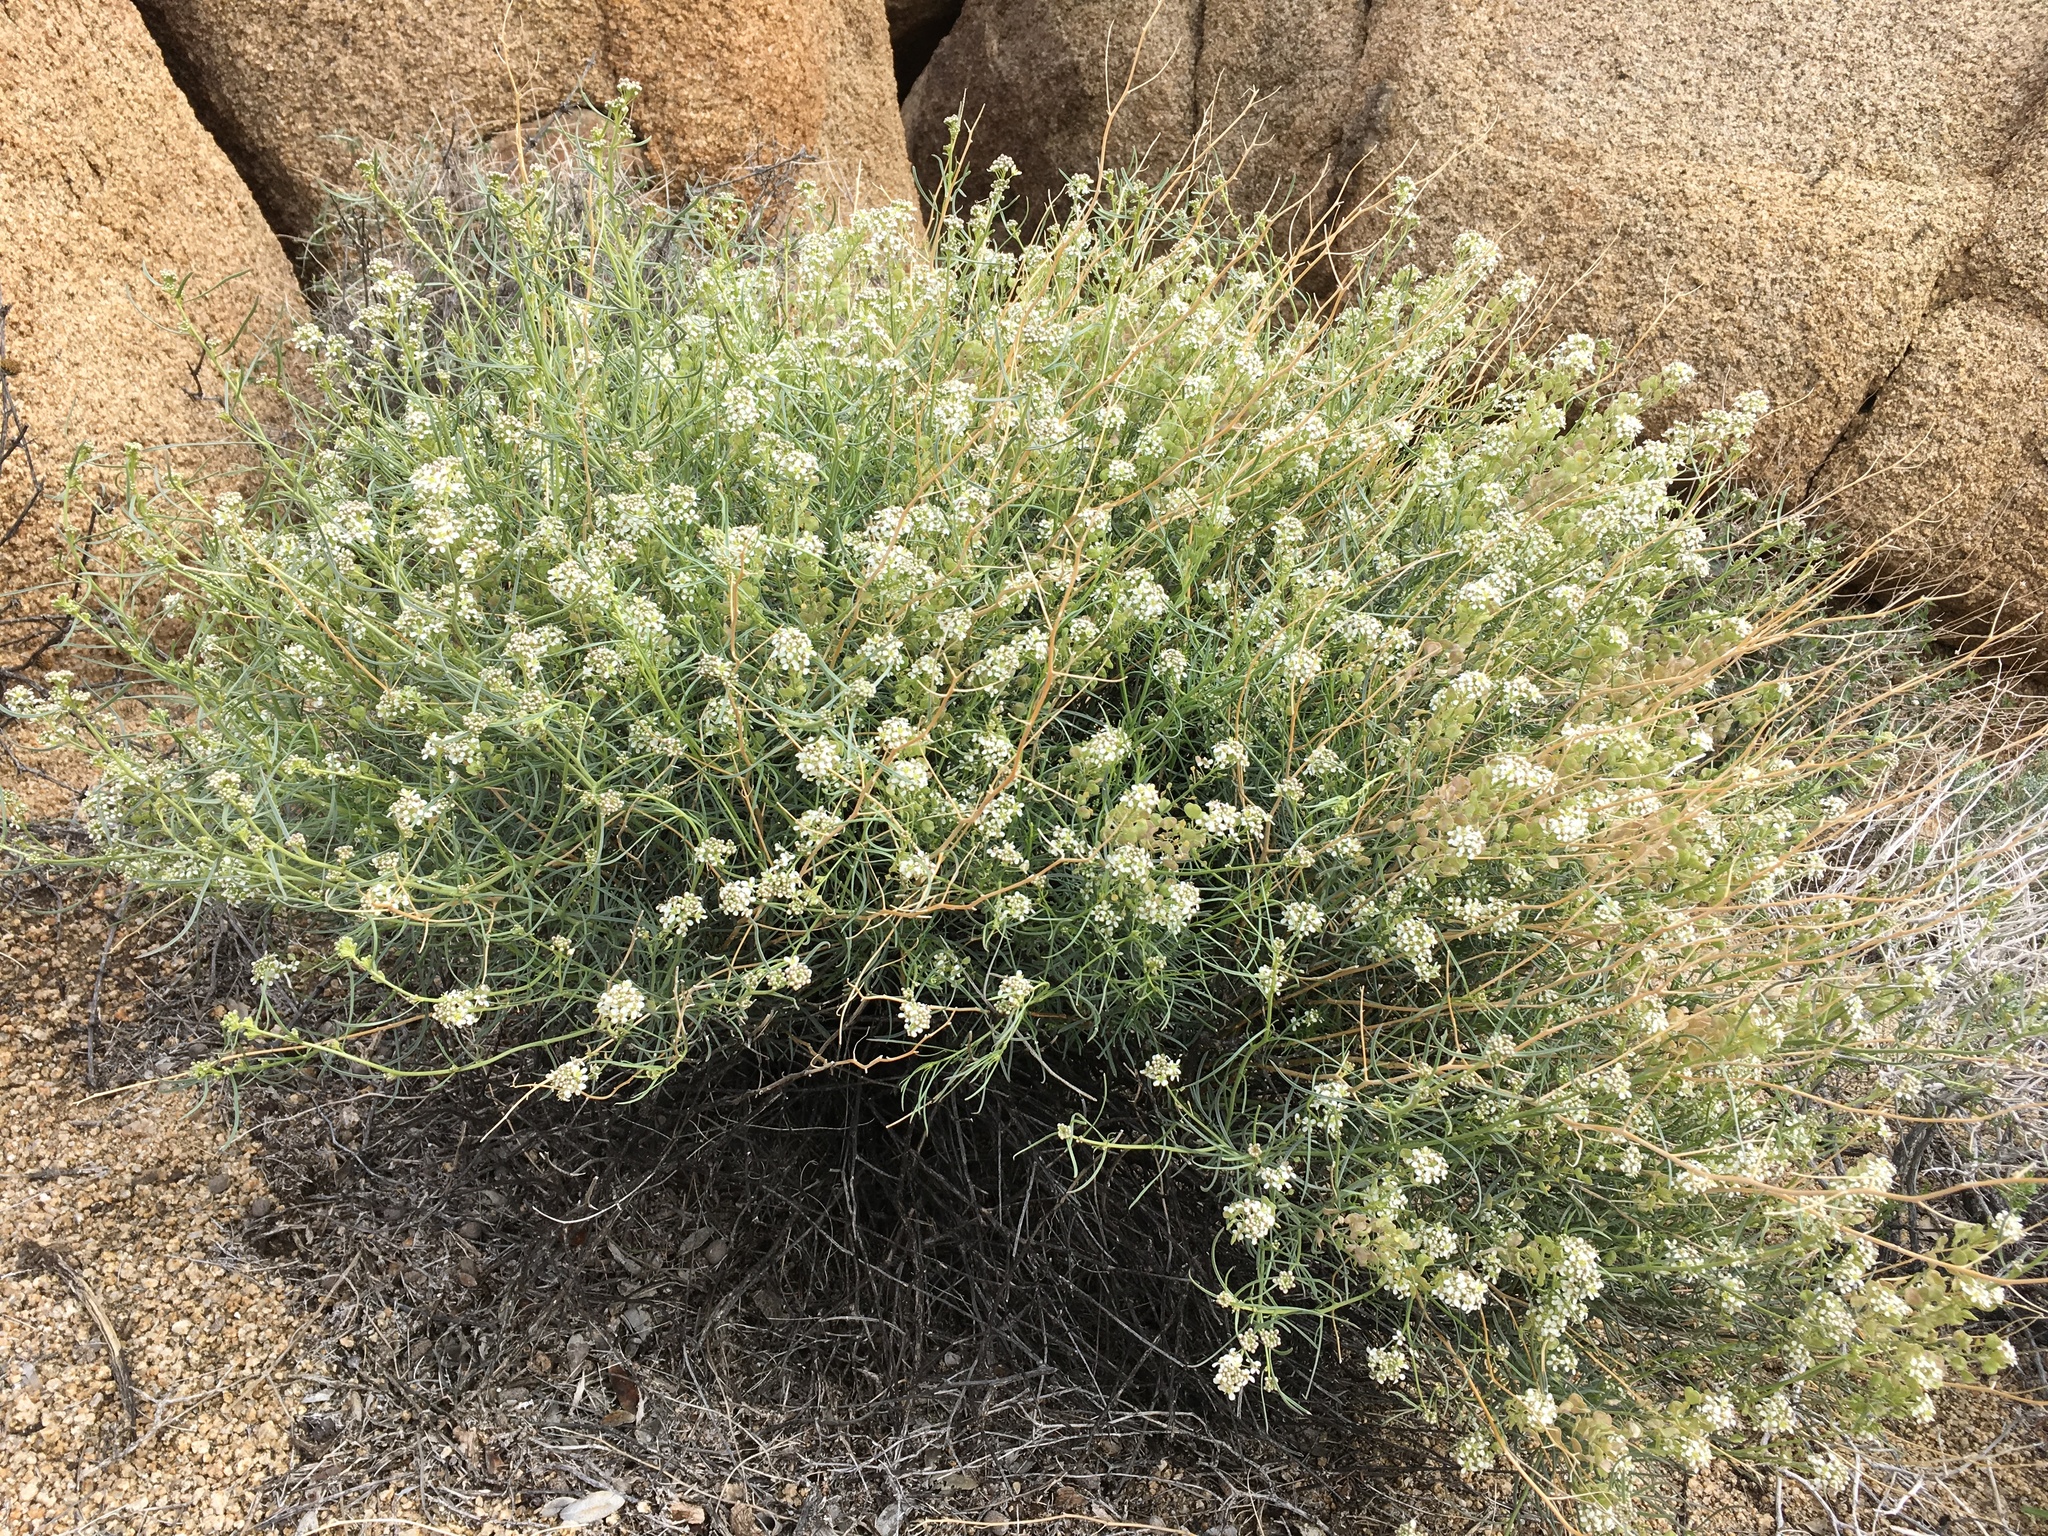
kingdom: Plantae
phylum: Tracheophyta
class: Magnoliopsida
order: Brassicales
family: Brassicaceae
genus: Lepidium
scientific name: Lepidium fremontii
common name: Fremont's pepperwort
